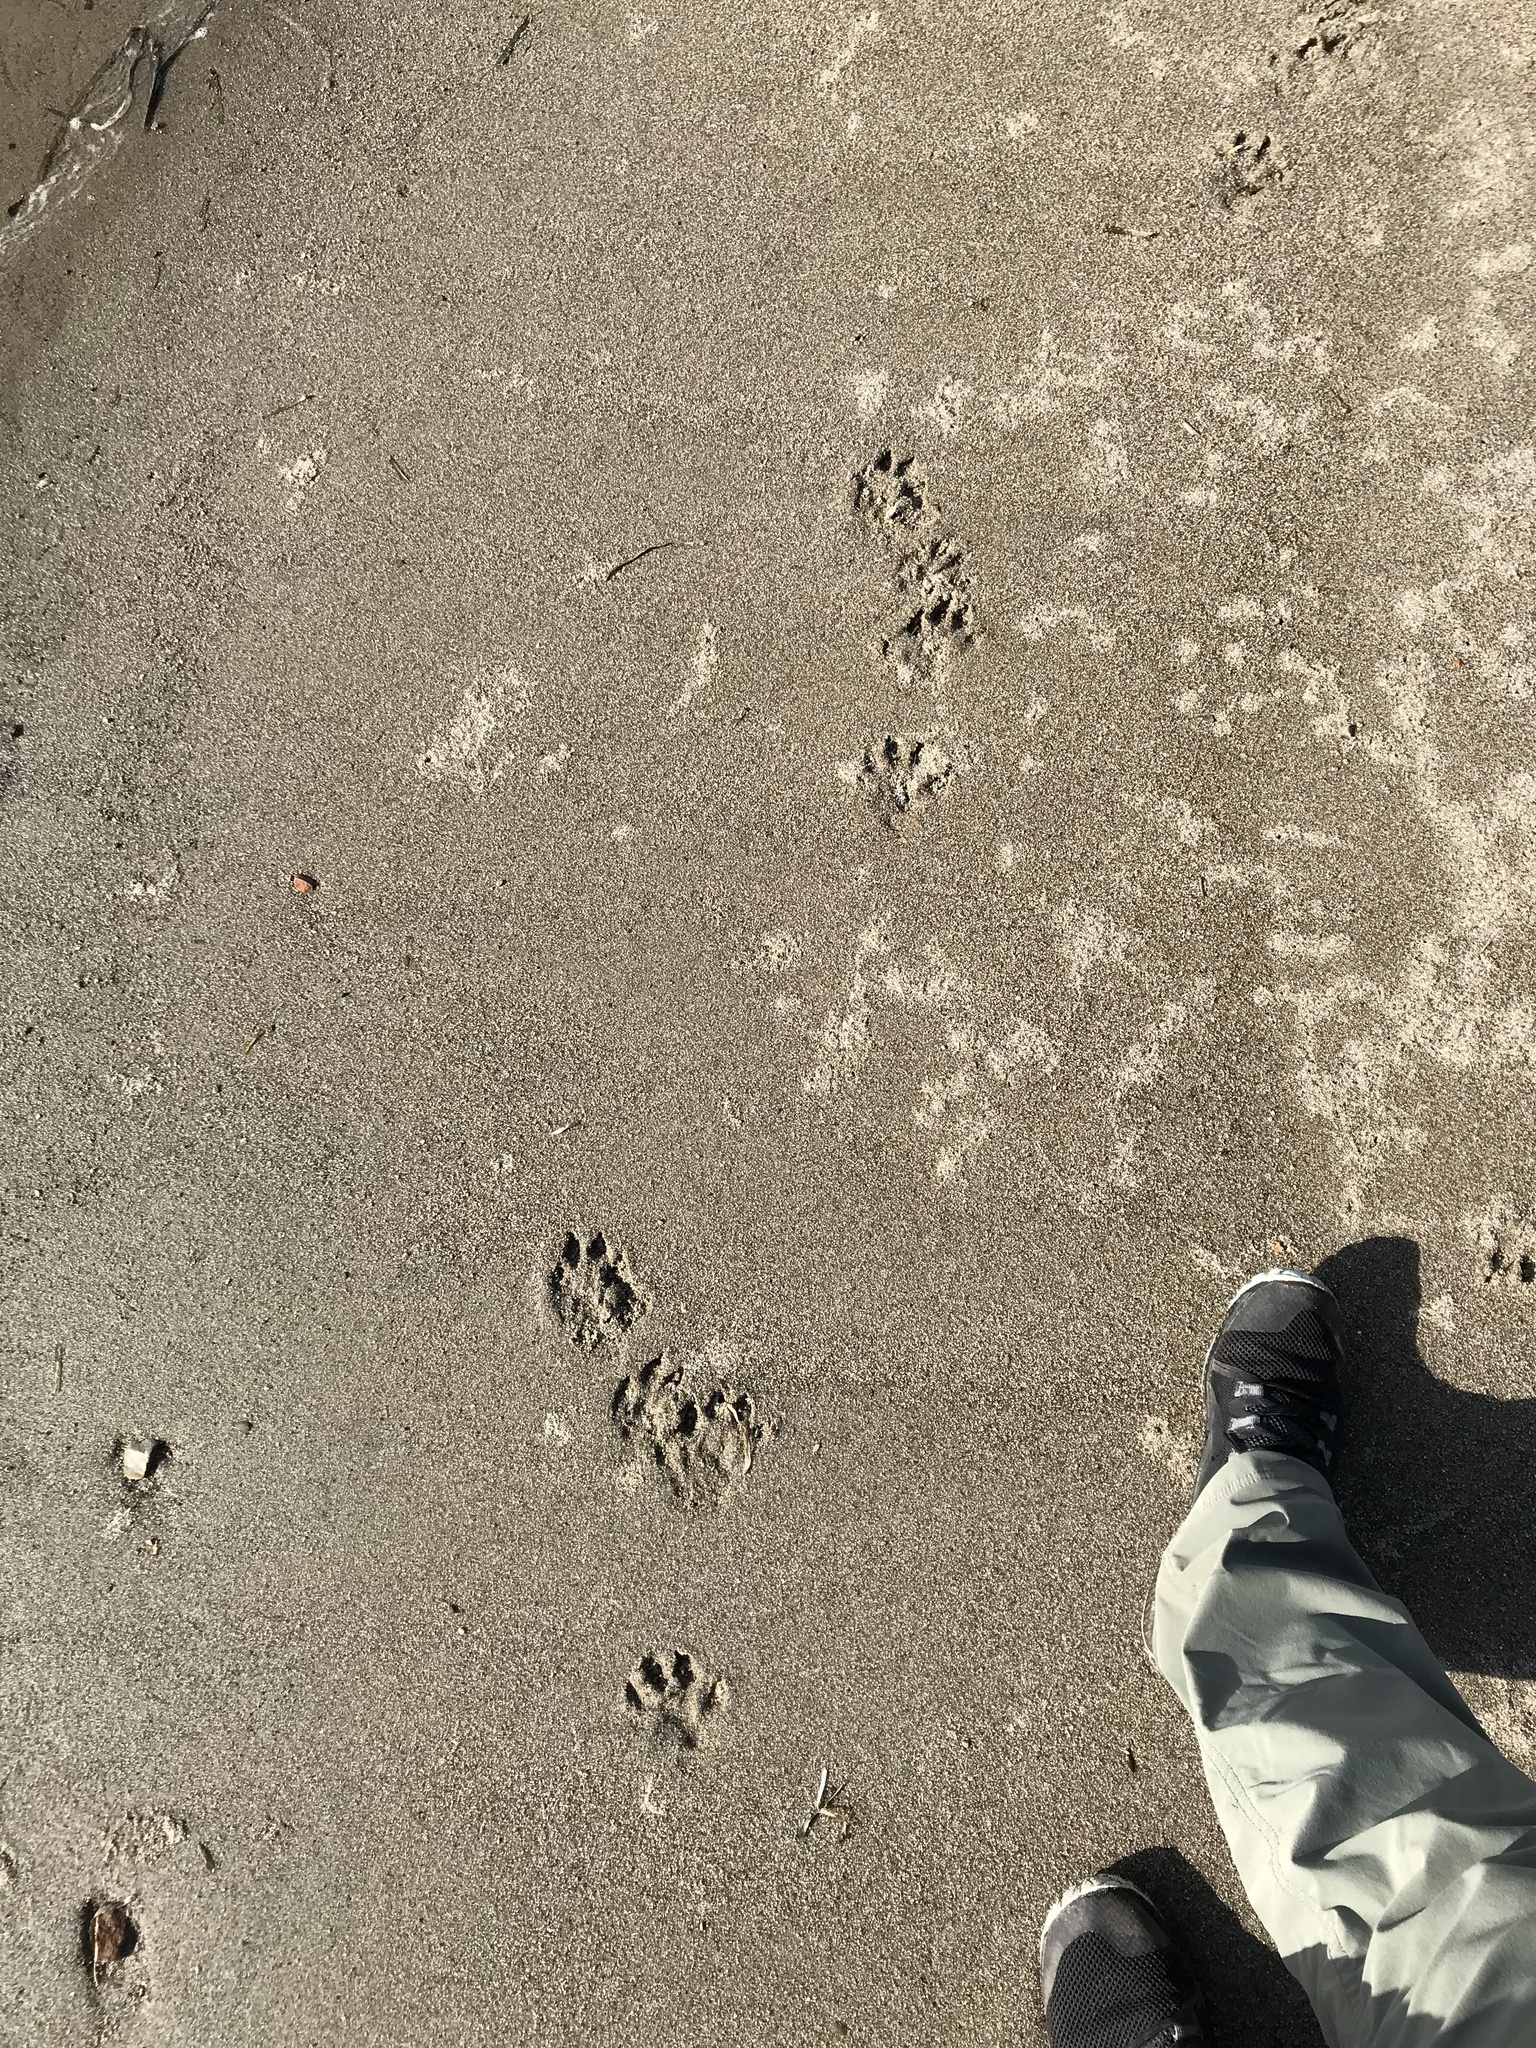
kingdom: Animalia
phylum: Chordata
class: Mammalia
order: Carnivora
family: Mustelidae
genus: Lontra
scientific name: Lontra canadensis
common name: North american river otter
